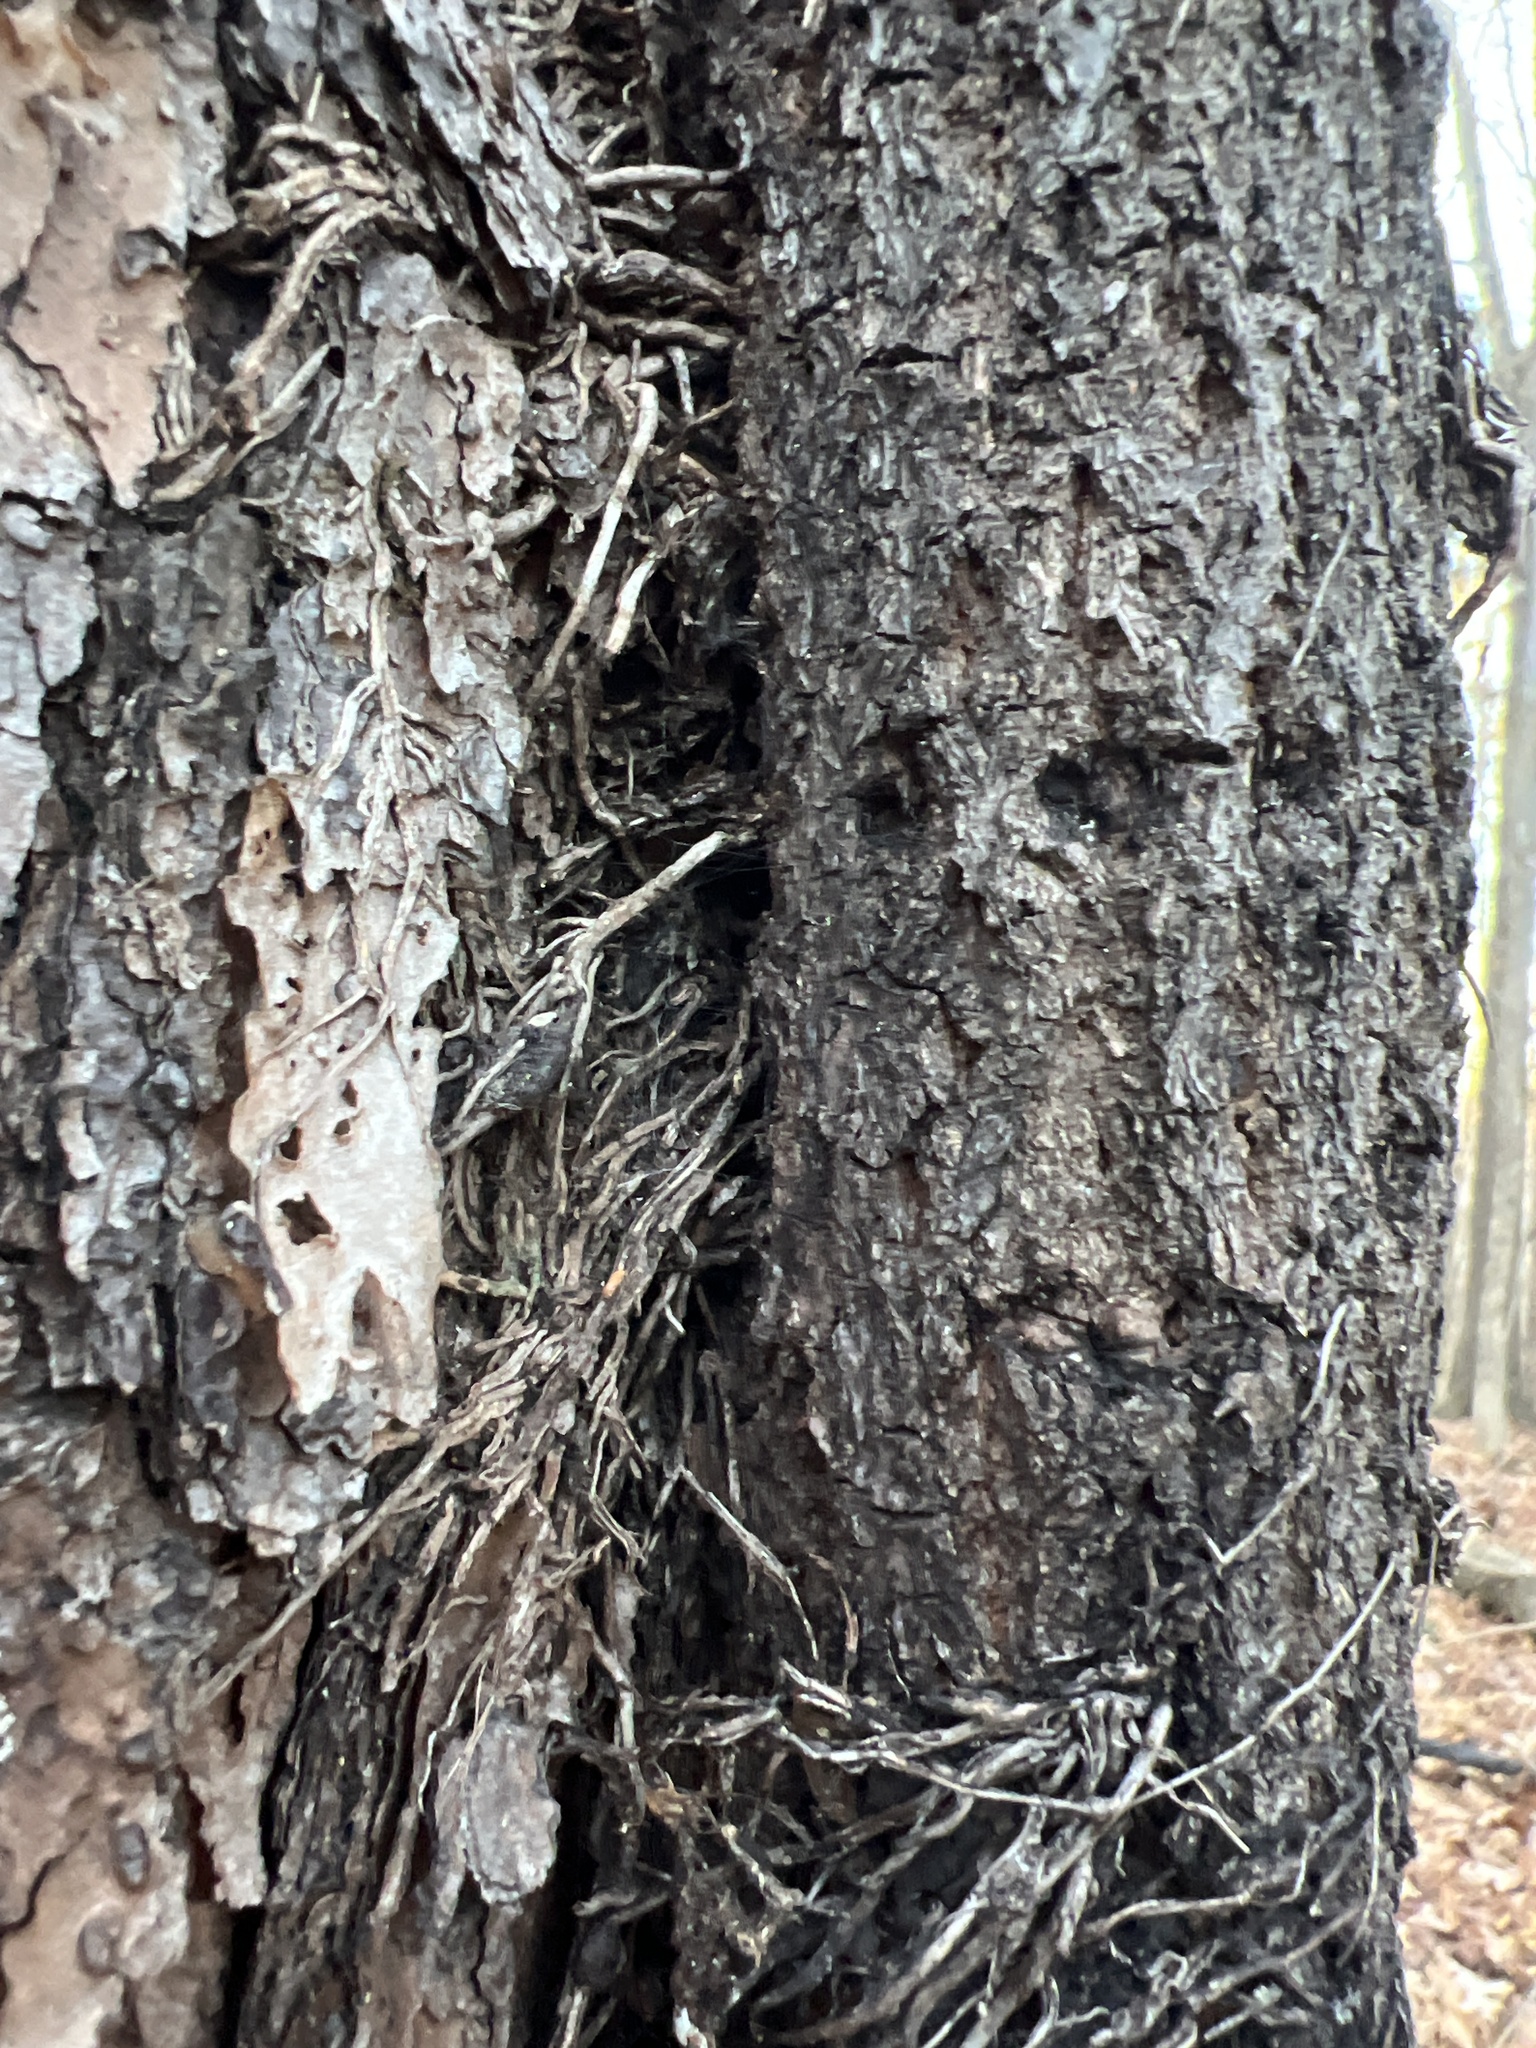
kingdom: Plantae
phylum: Tracheophyta
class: Magnoliopsida
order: Vitales
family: Vitaceae
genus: Parthenocissus
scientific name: Parthenocissus quinquefolia
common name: Virginia-creeper
